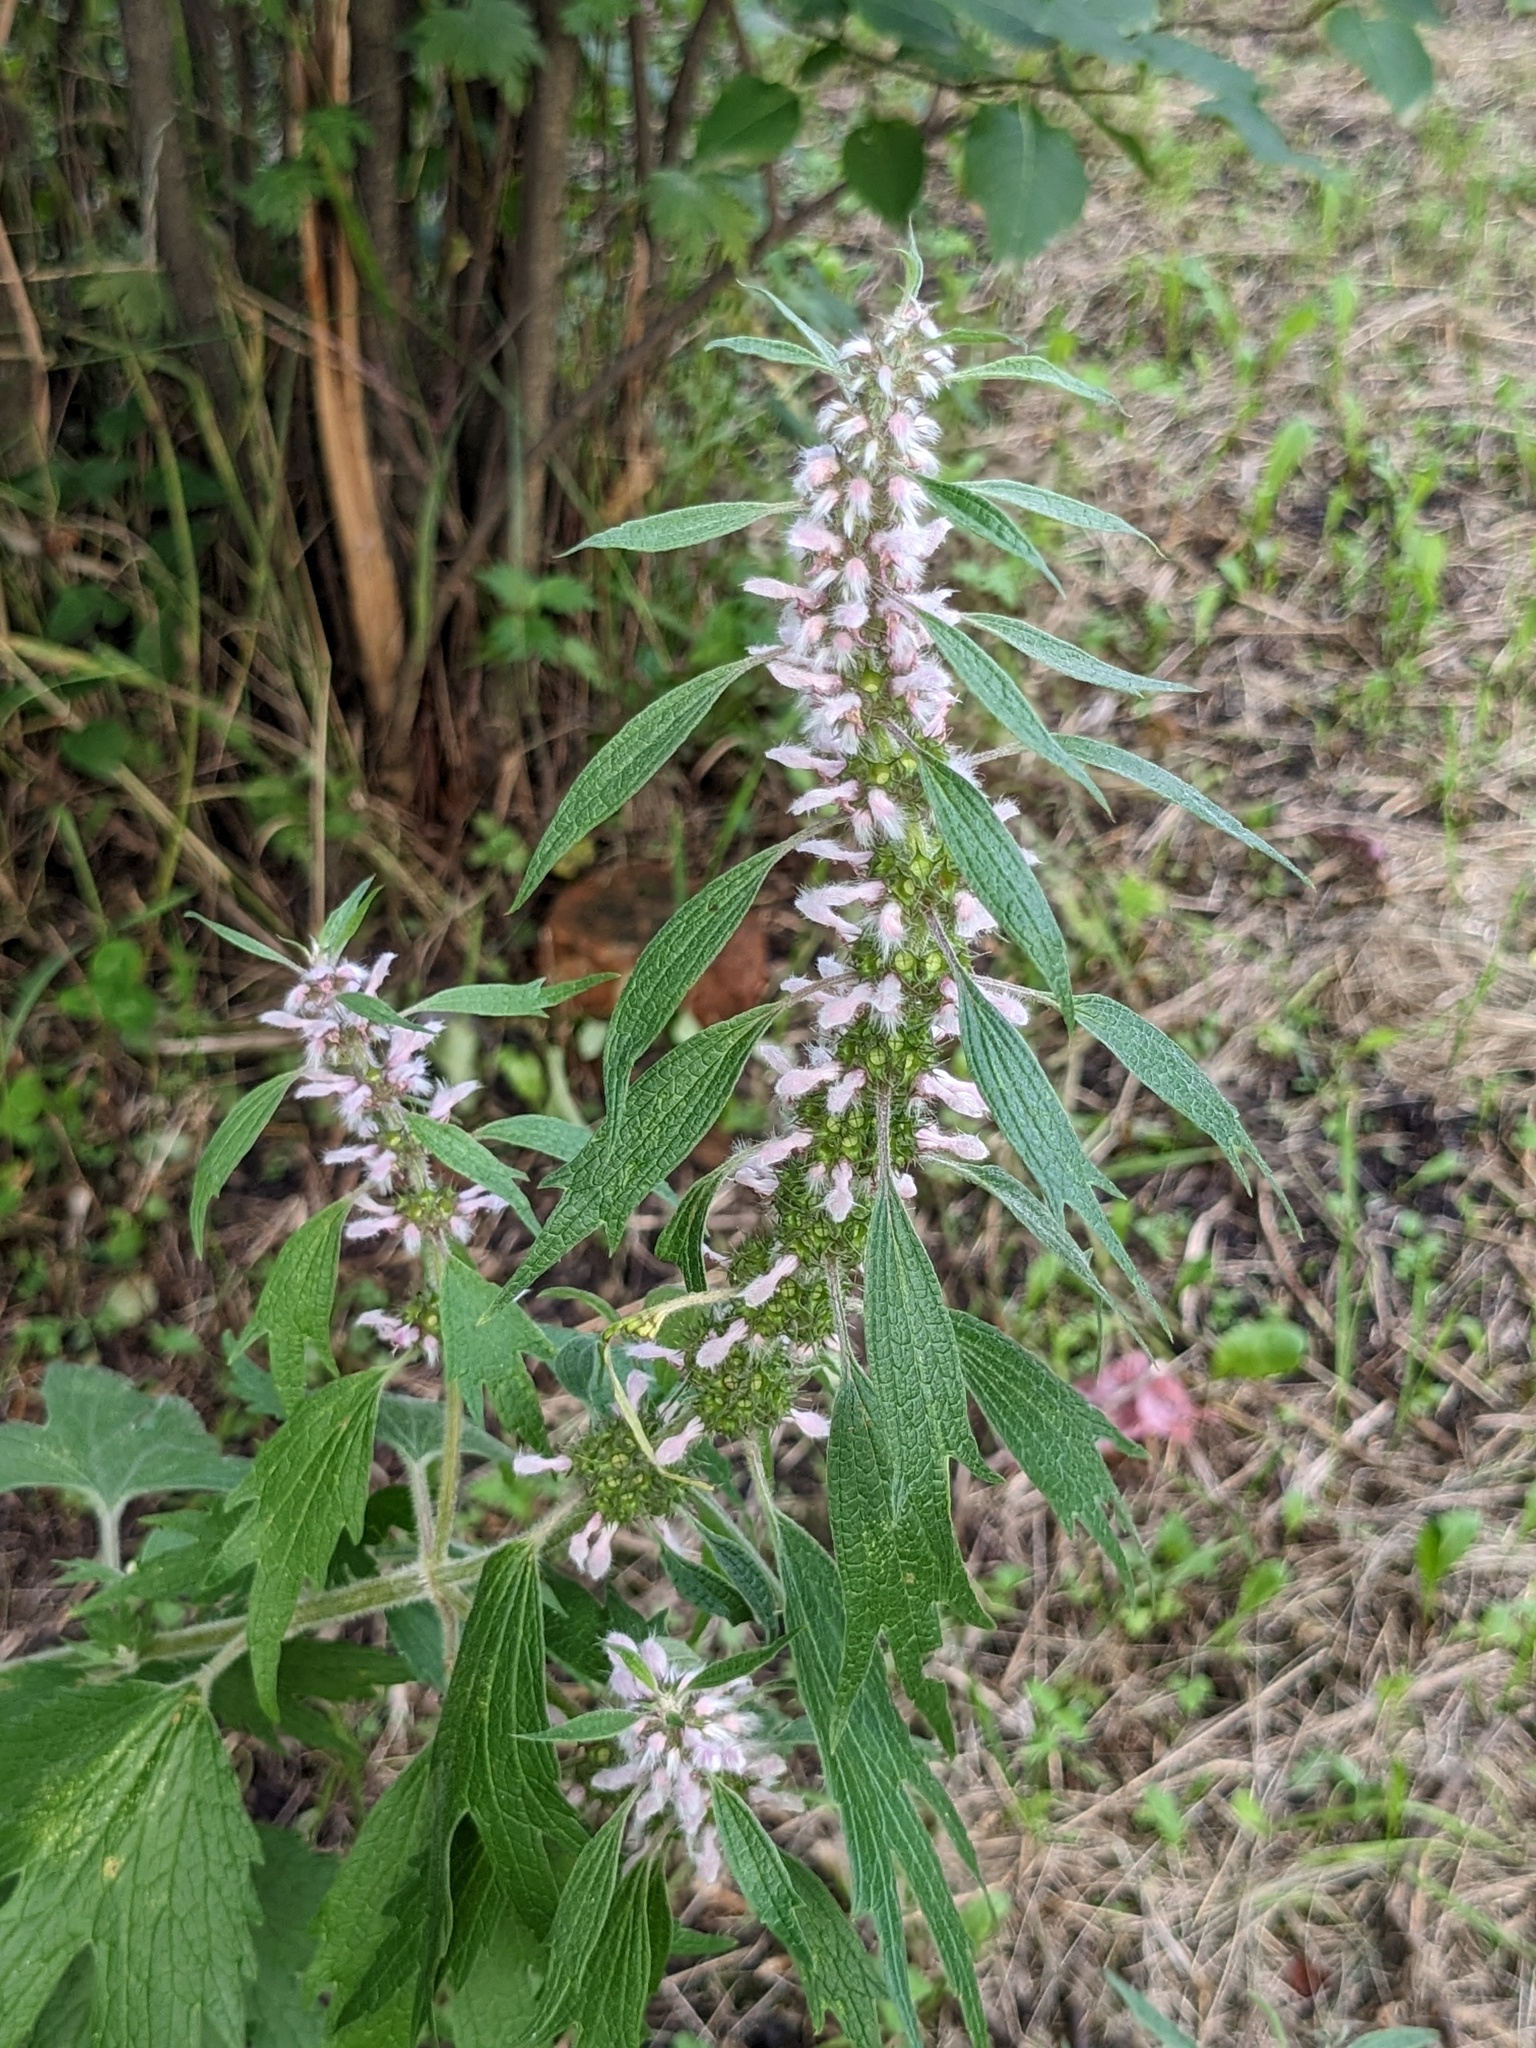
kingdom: Plantae
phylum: Tracheophyta
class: Magnoliopsida
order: Lamiales
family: Lamiaceae
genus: Leonurus
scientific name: Leonurus quinquelobatus
